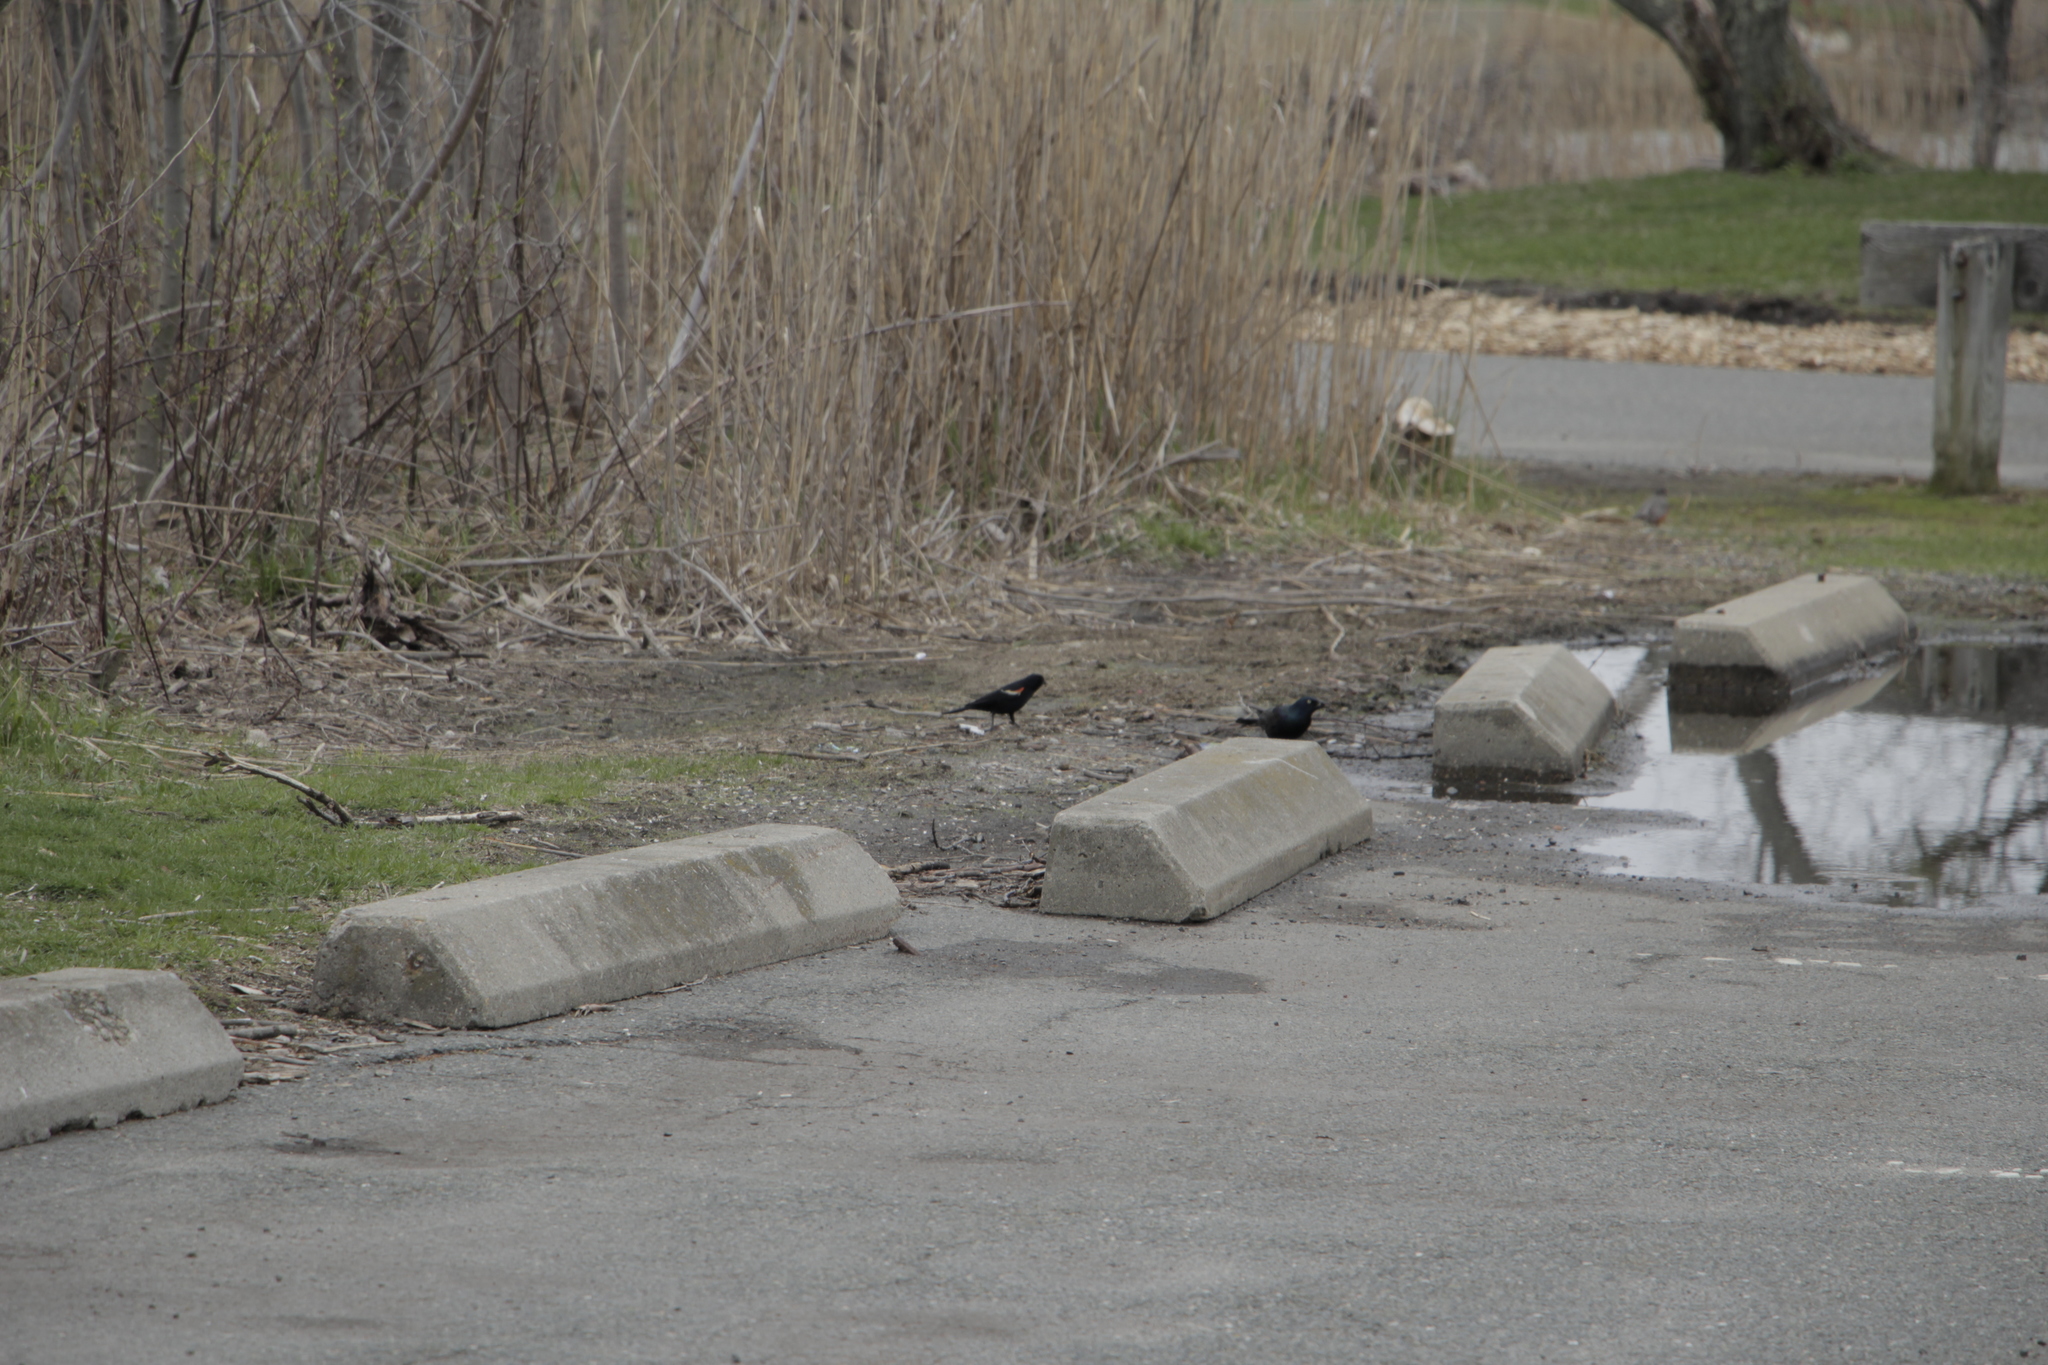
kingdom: Animalia
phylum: Chordata
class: Aves
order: Passeriformes
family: Icteridae
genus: Agelaius
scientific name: Agelaius phoeniceus
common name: Red-winged blackbird
